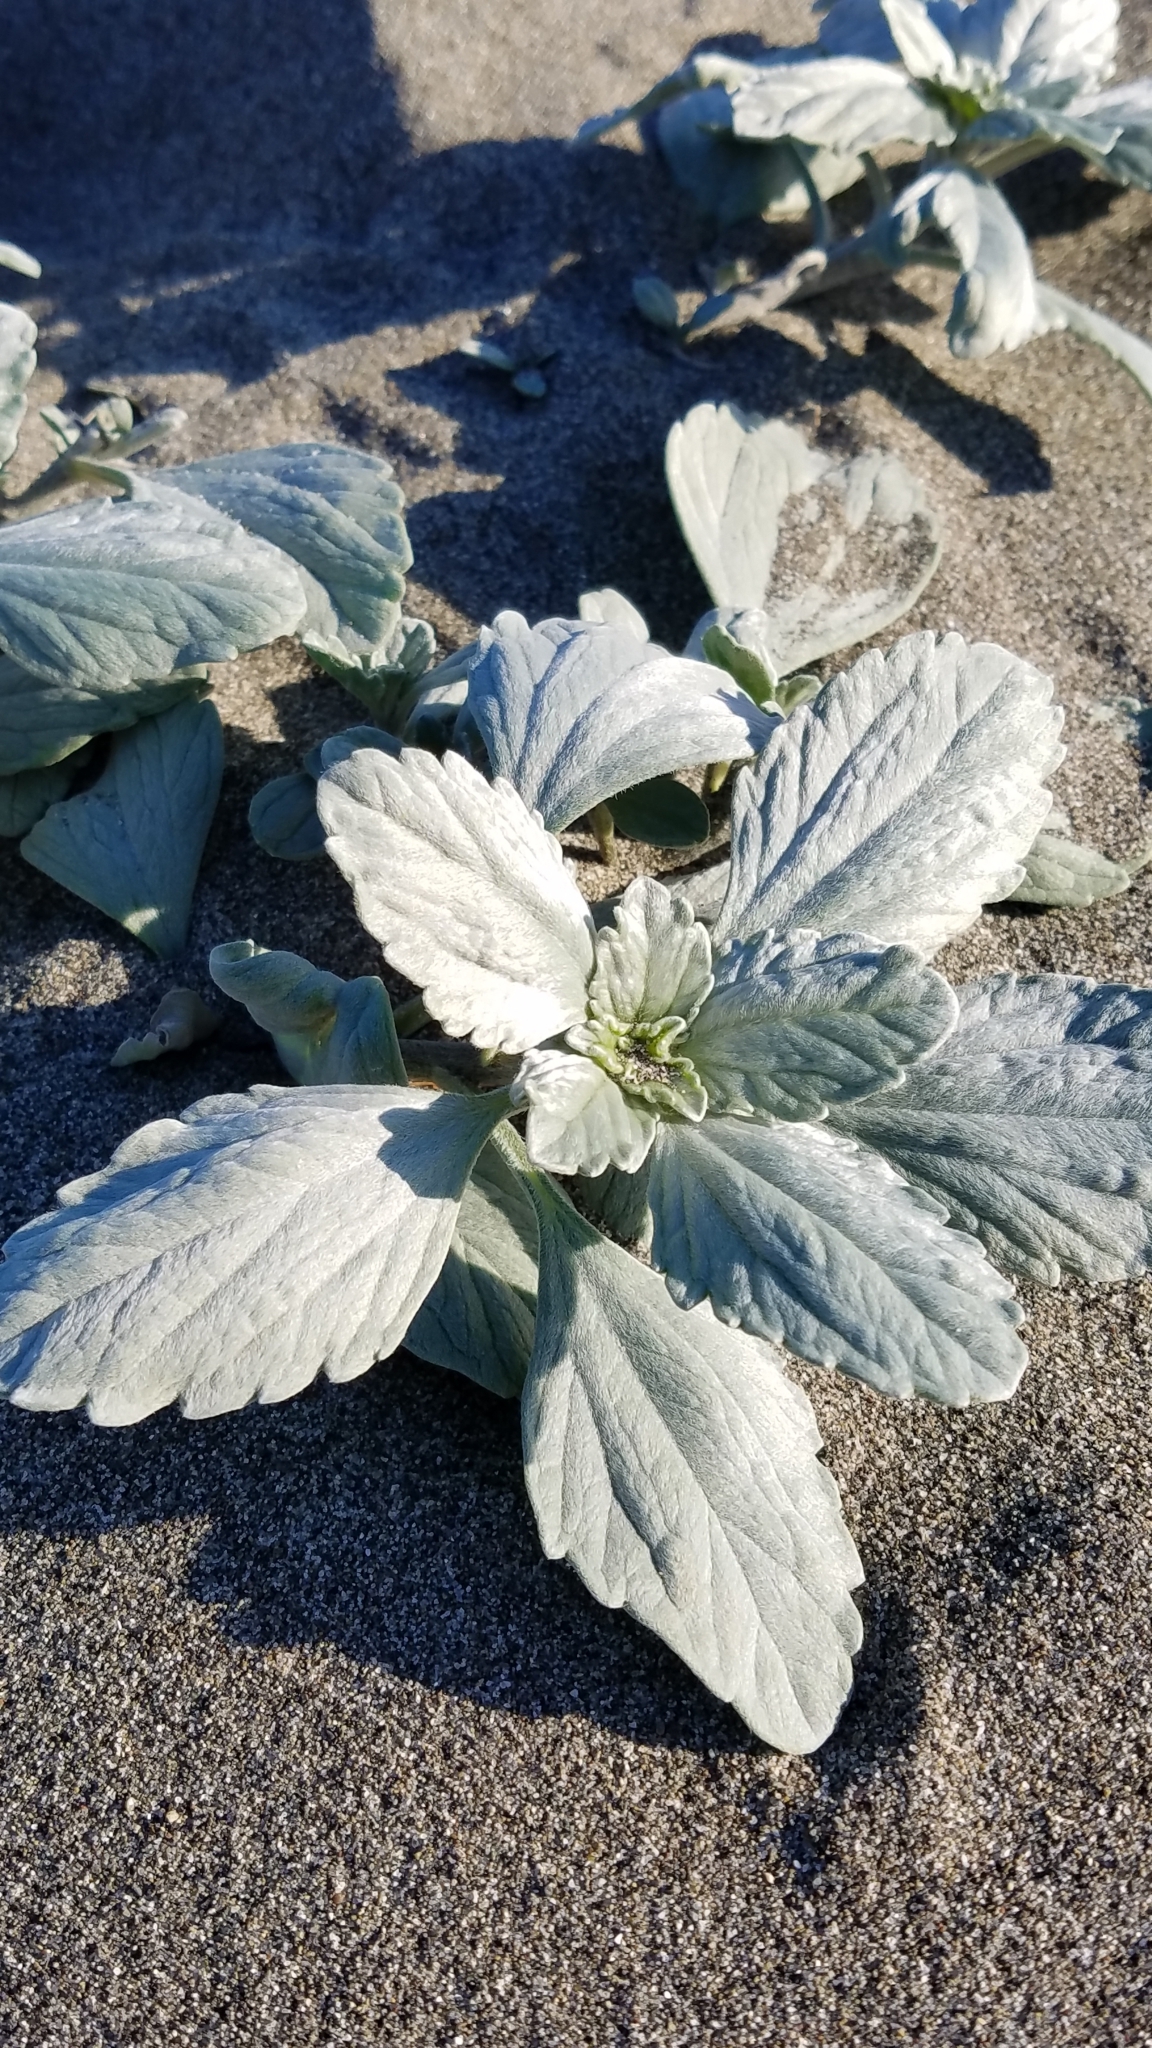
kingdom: Plantae
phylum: Tracheophyta
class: Magnoliopsida
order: Asterales
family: Asteraceae
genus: Ambrosia
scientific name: Ambrosia chamissonis
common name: Beachbur
